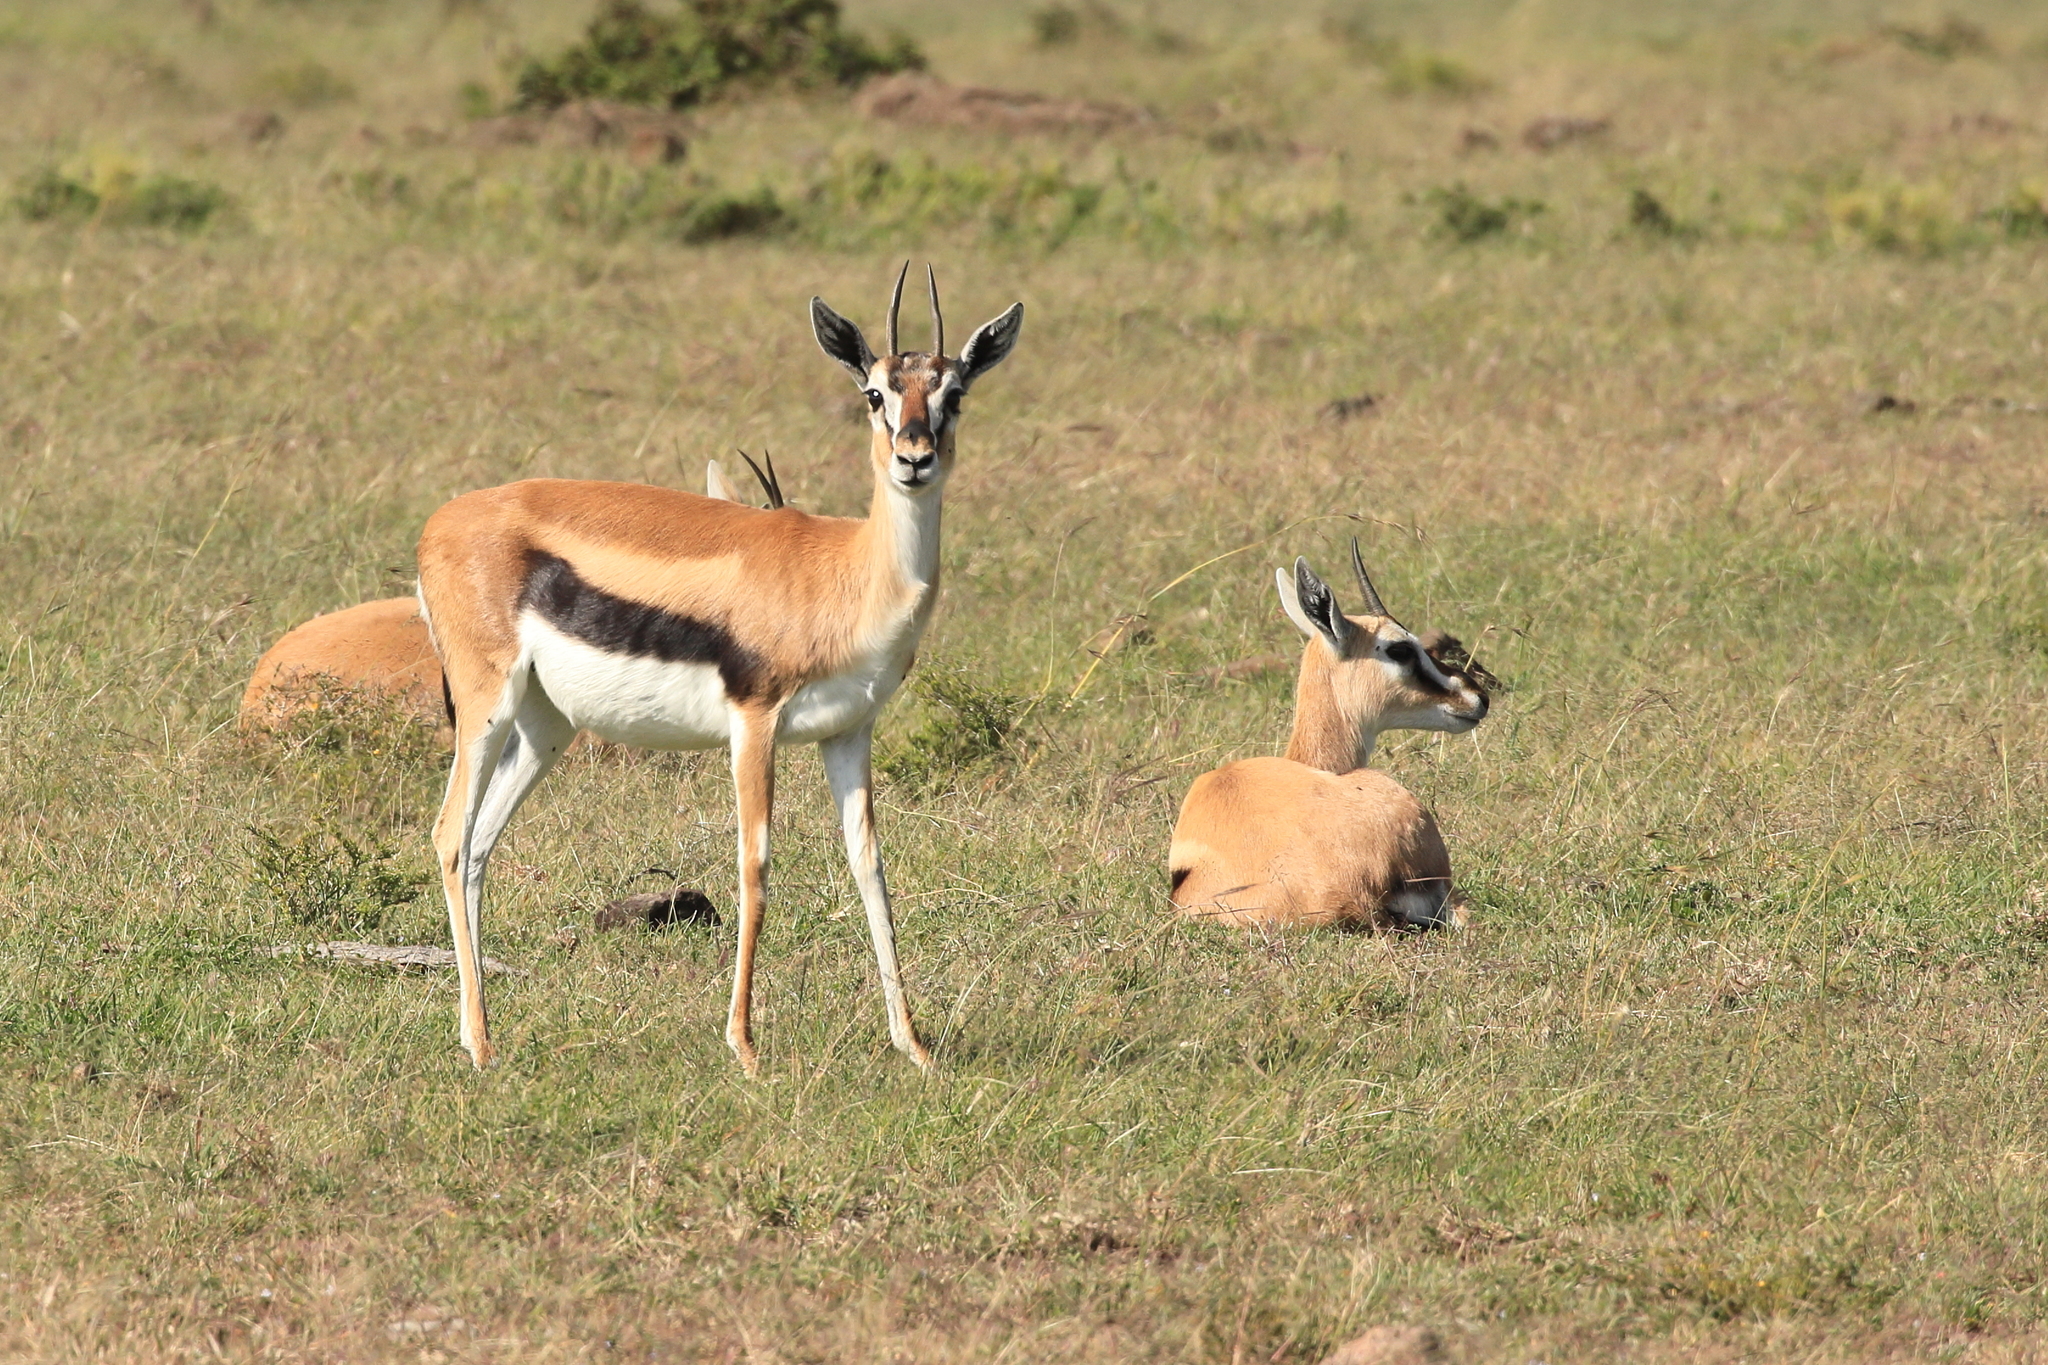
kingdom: Animalia
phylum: Chordata
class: Mammalia
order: Artiodactyla
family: Bovidae
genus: Eudorcas
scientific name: Eudorcas thomsonii
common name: Thomson's gazelle
